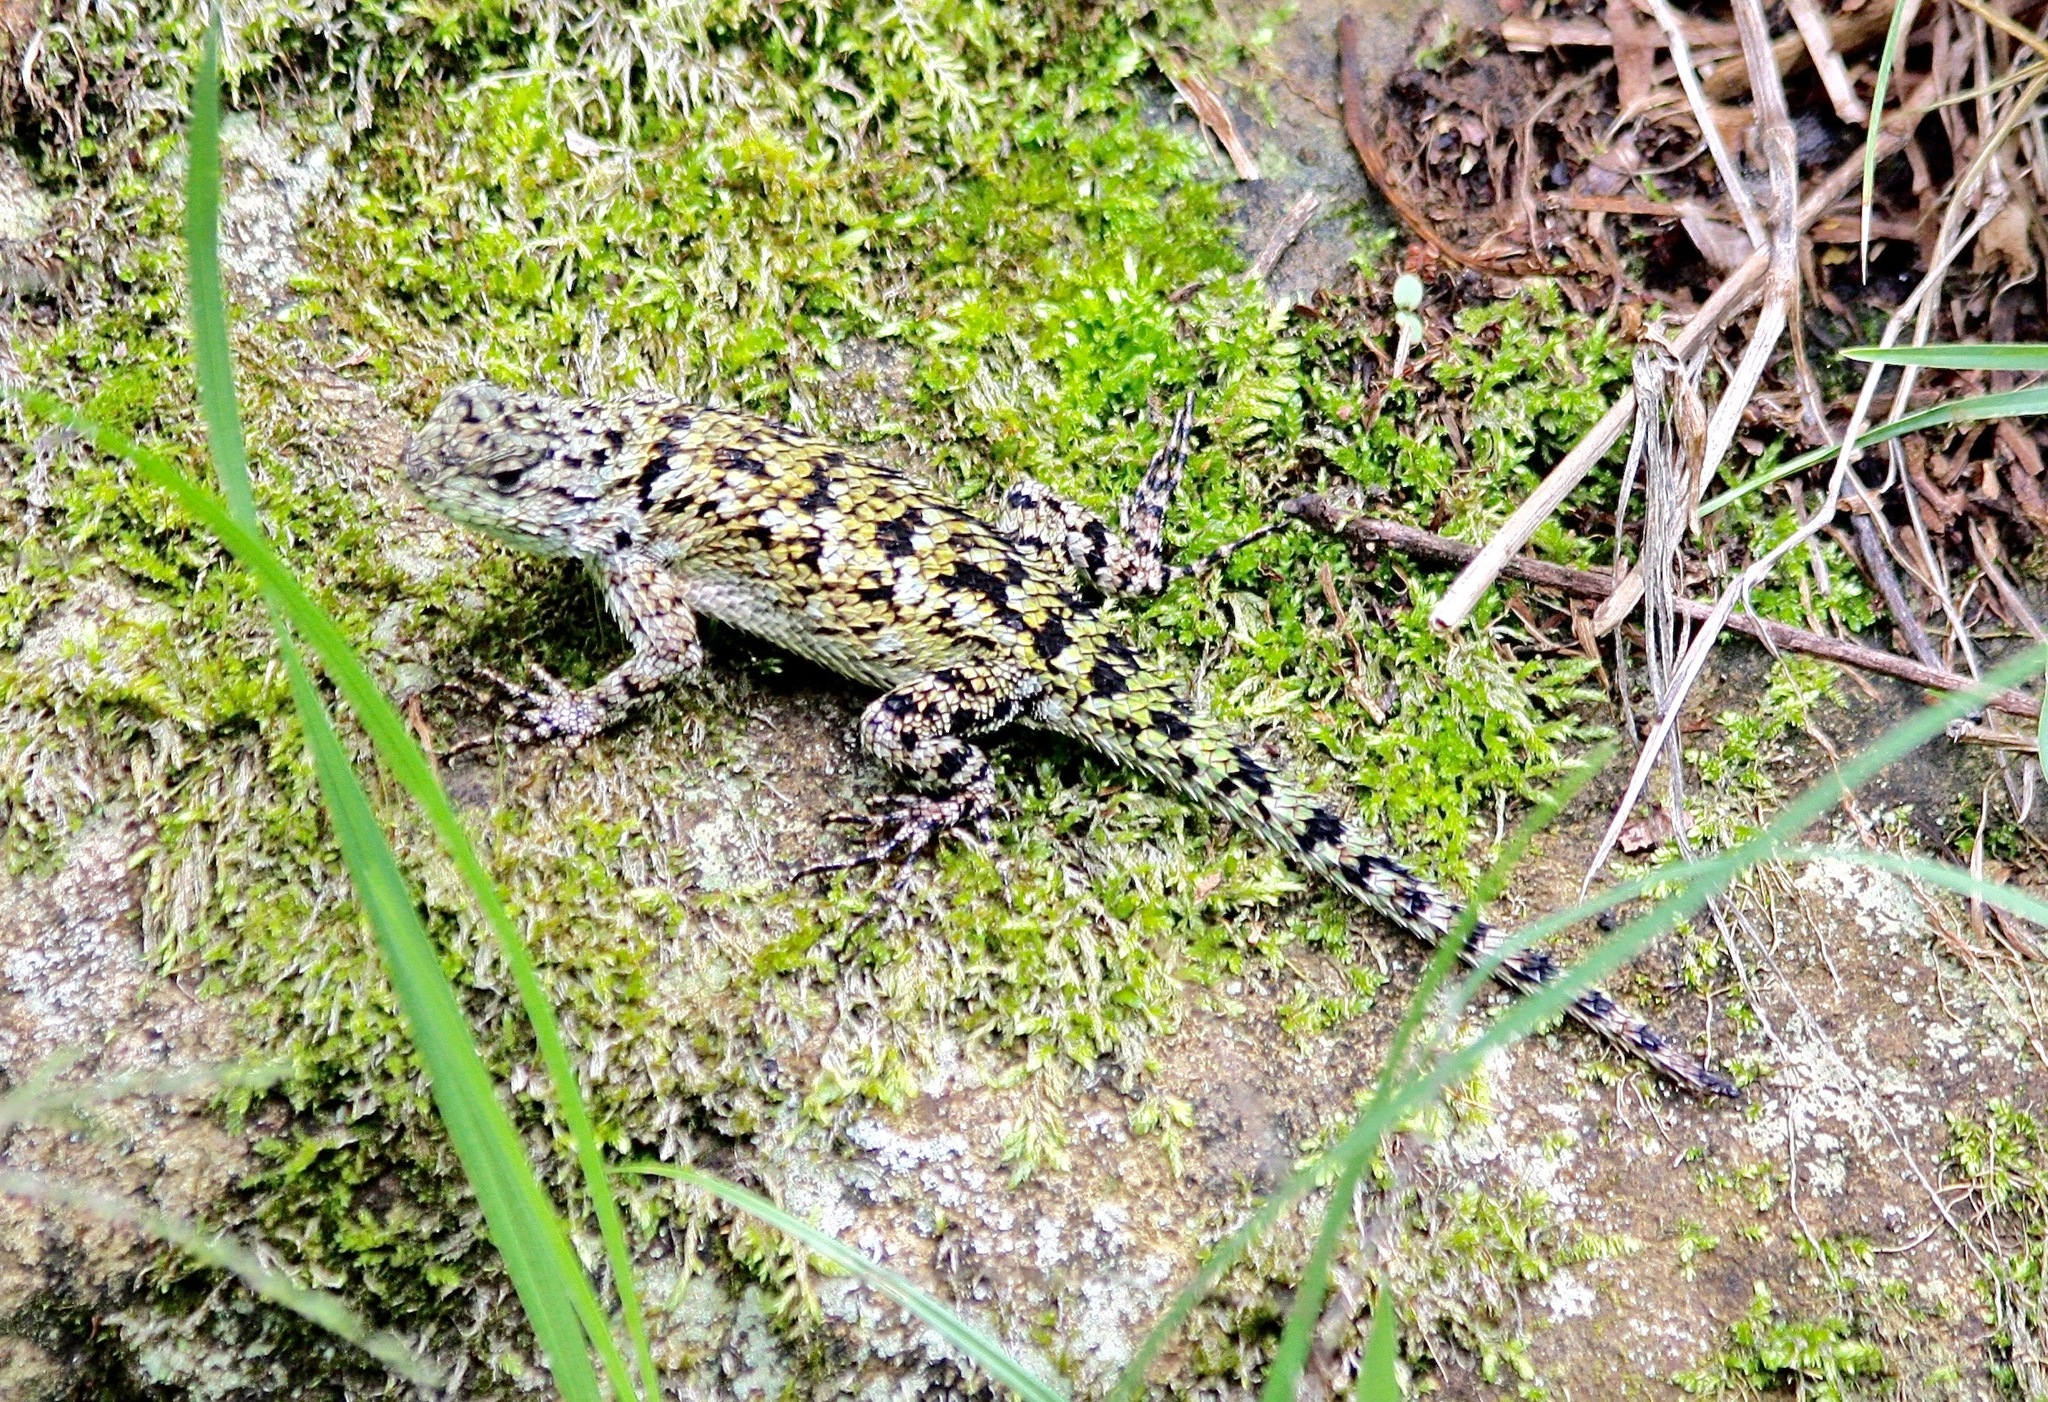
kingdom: Animalia
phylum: Chordata
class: Squamata
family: Phrynosomatidae
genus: Sceloporus
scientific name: Sceloporus malachiticus
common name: Green spiny lizard
